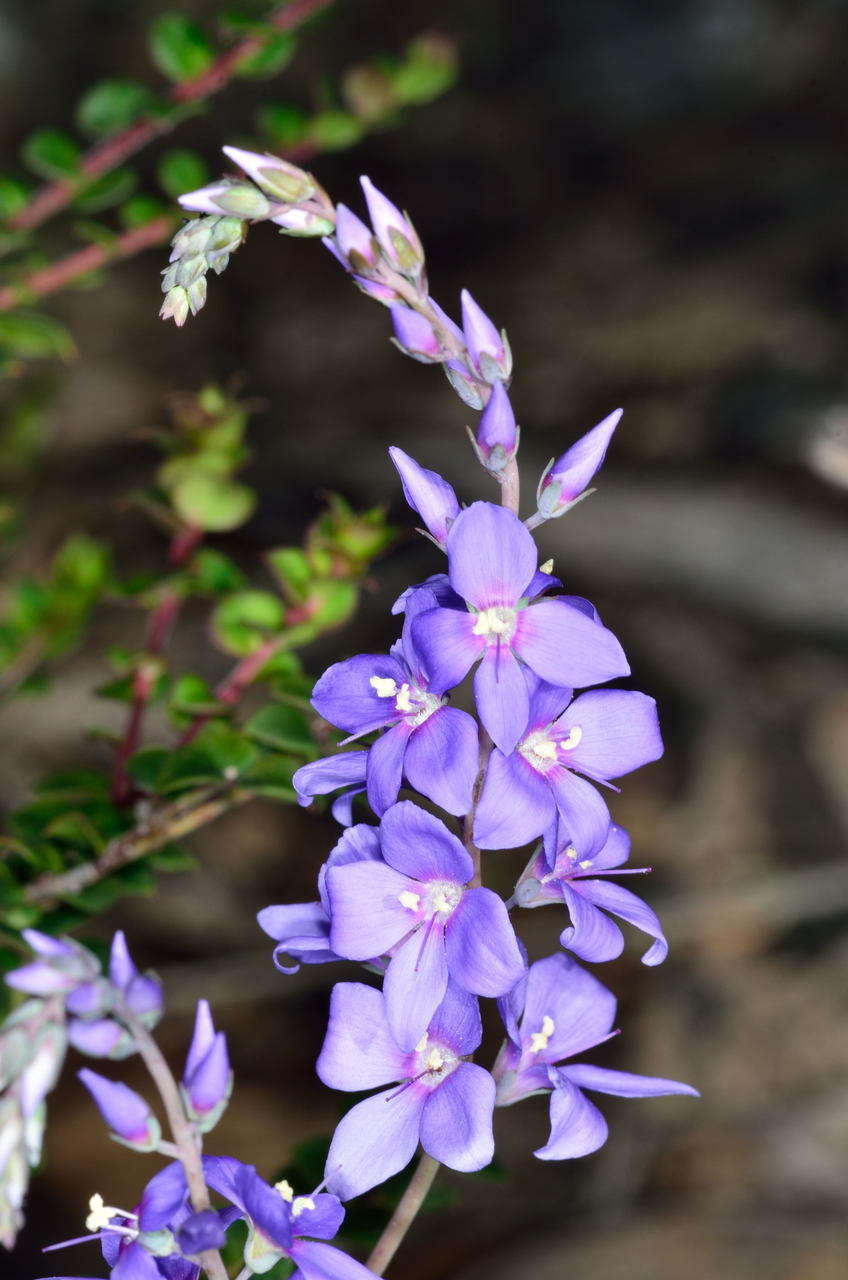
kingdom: Plantae
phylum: Tracheophyta
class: Magnoliopsida
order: Lamiales
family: Plantaginaceae
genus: Veronica
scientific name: Veronica perfoliata
